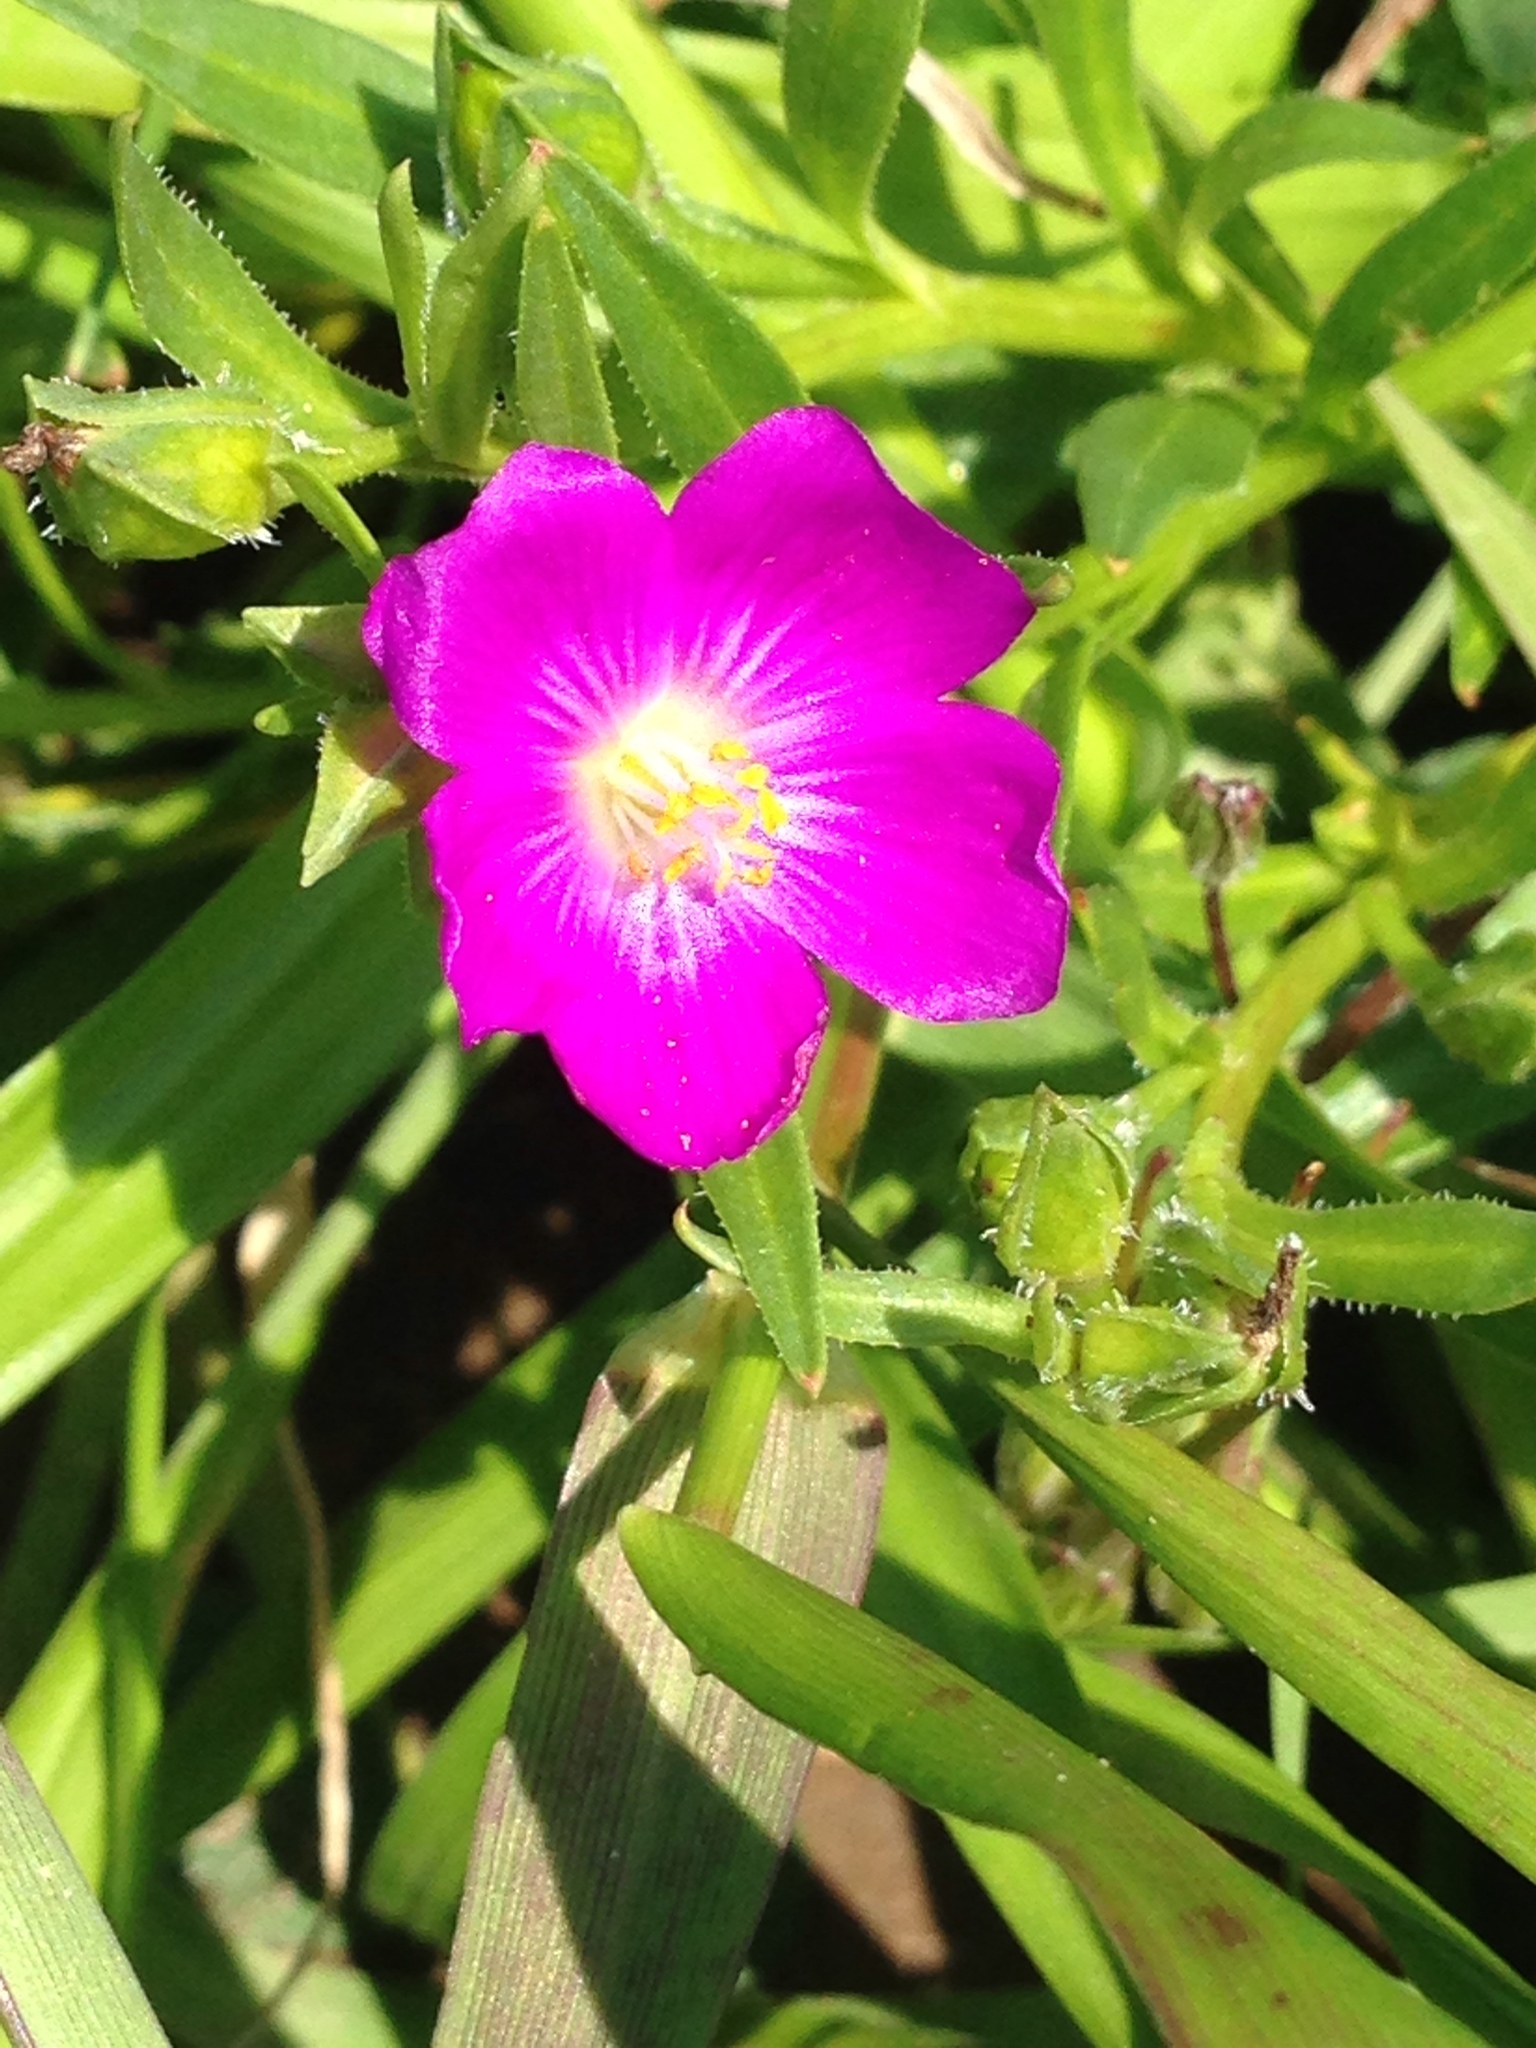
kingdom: Plantae
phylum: Tracheophyta
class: Magnoliopsida
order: Caryophyllales
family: Montiaceae
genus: Calandrinia
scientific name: Calandrinia menziesii
